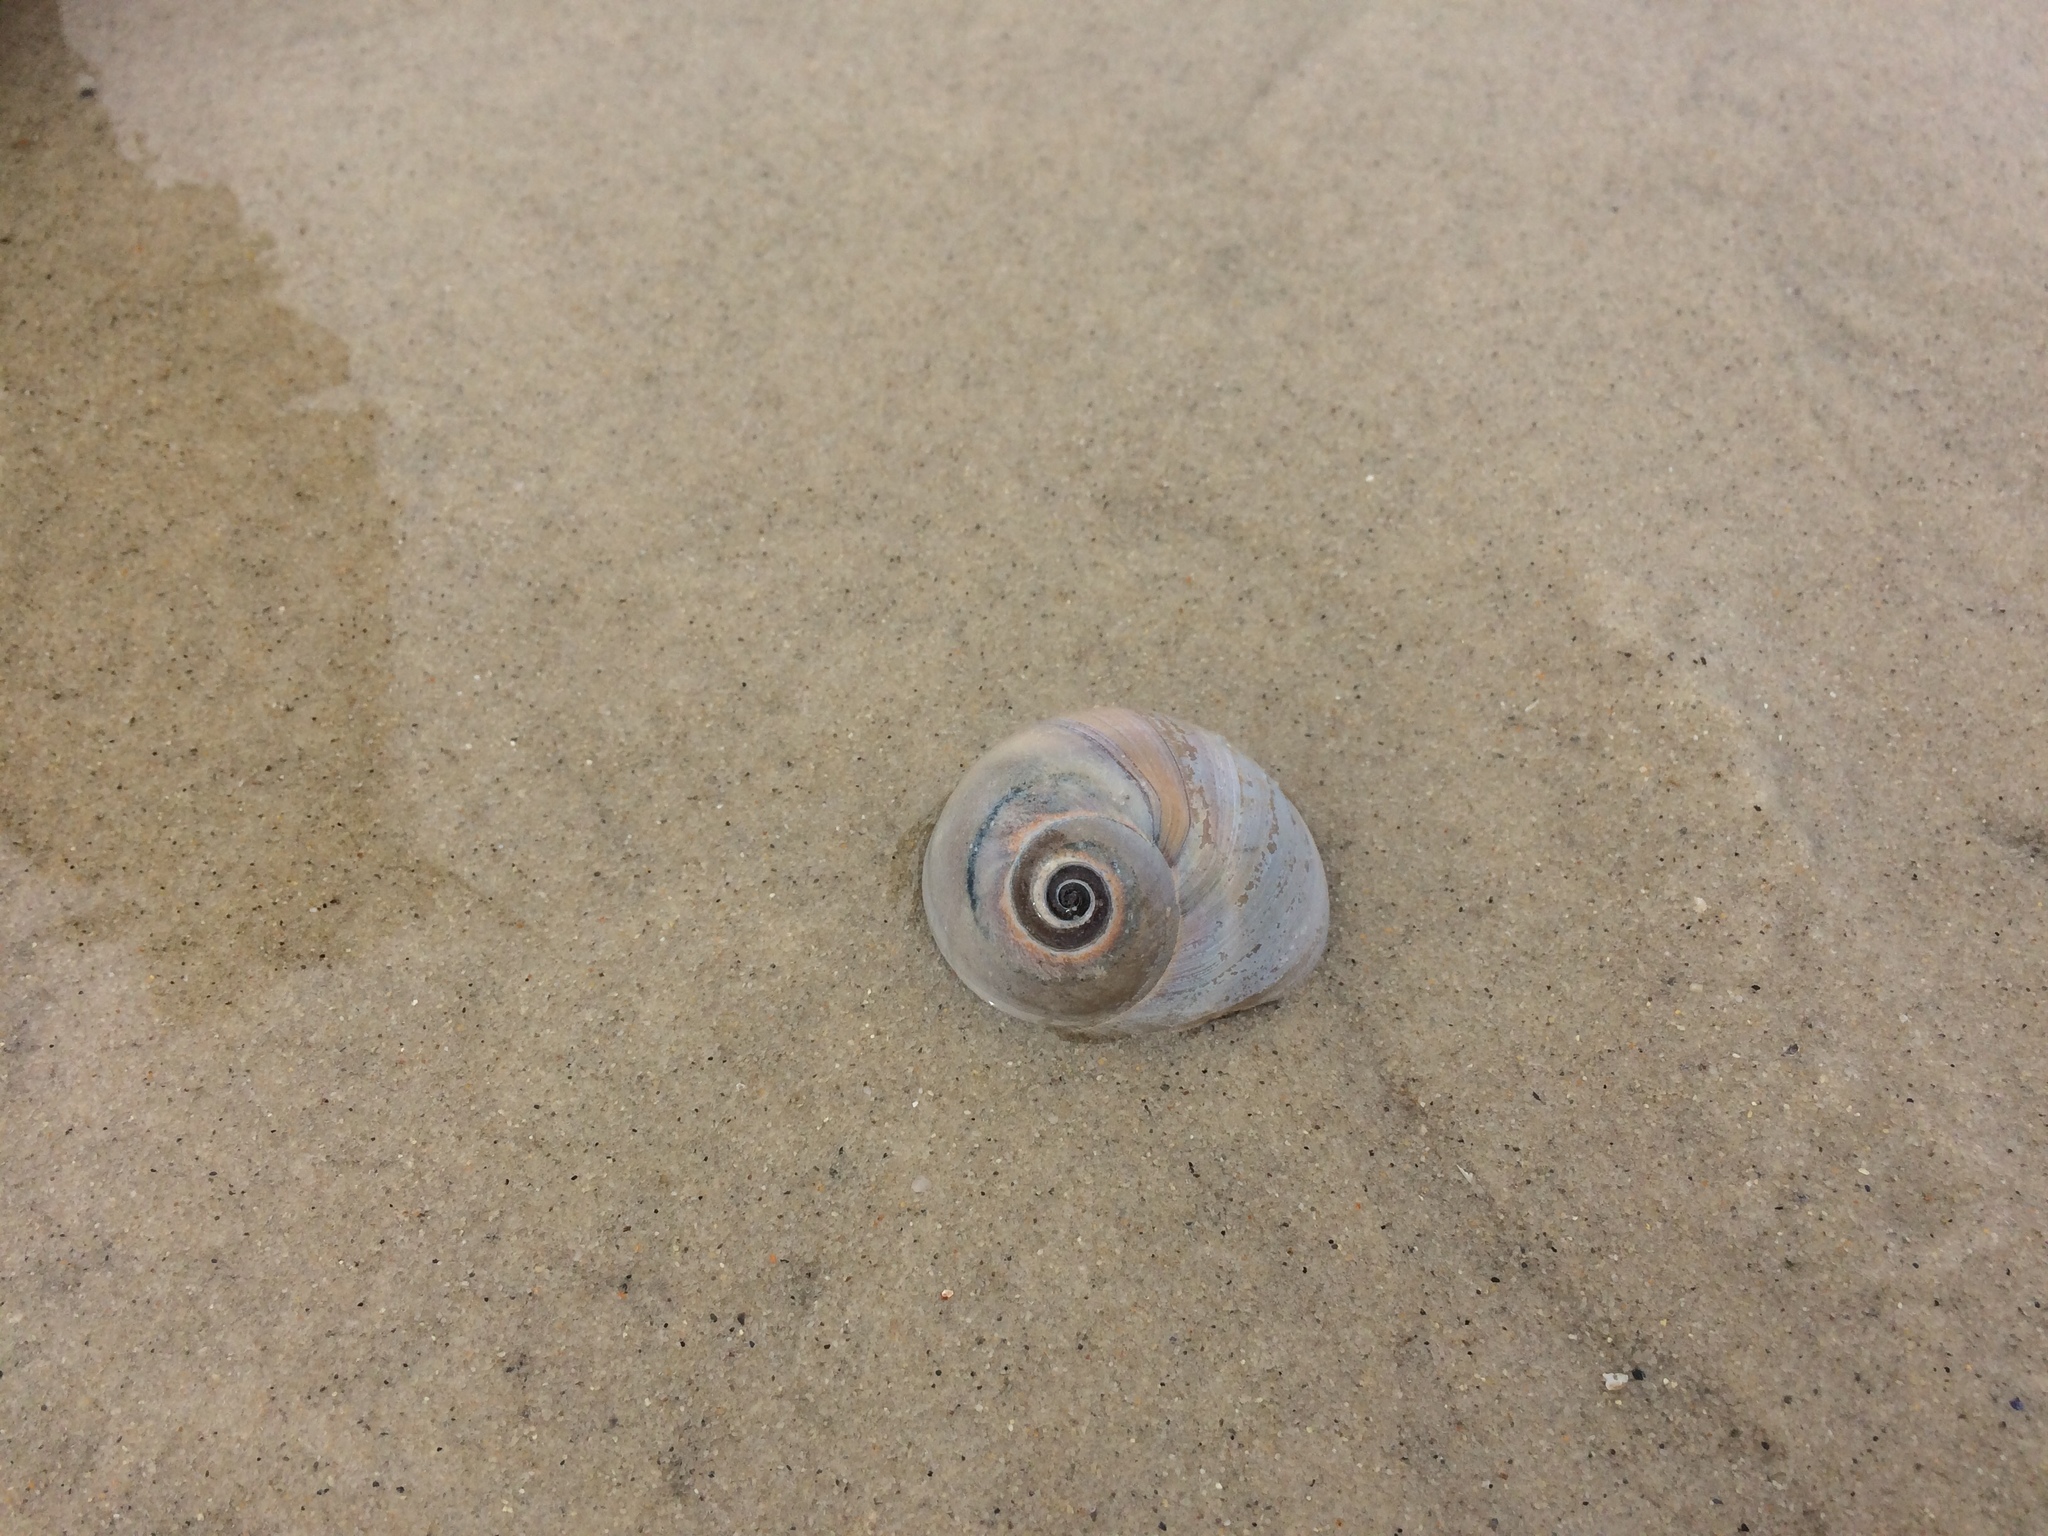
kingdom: Animalia
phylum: Mollusca
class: Gastropoda
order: Littorinimorpha
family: Naticidae
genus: Euspira
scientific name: Euspira heros
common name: Common northern moonsnail
